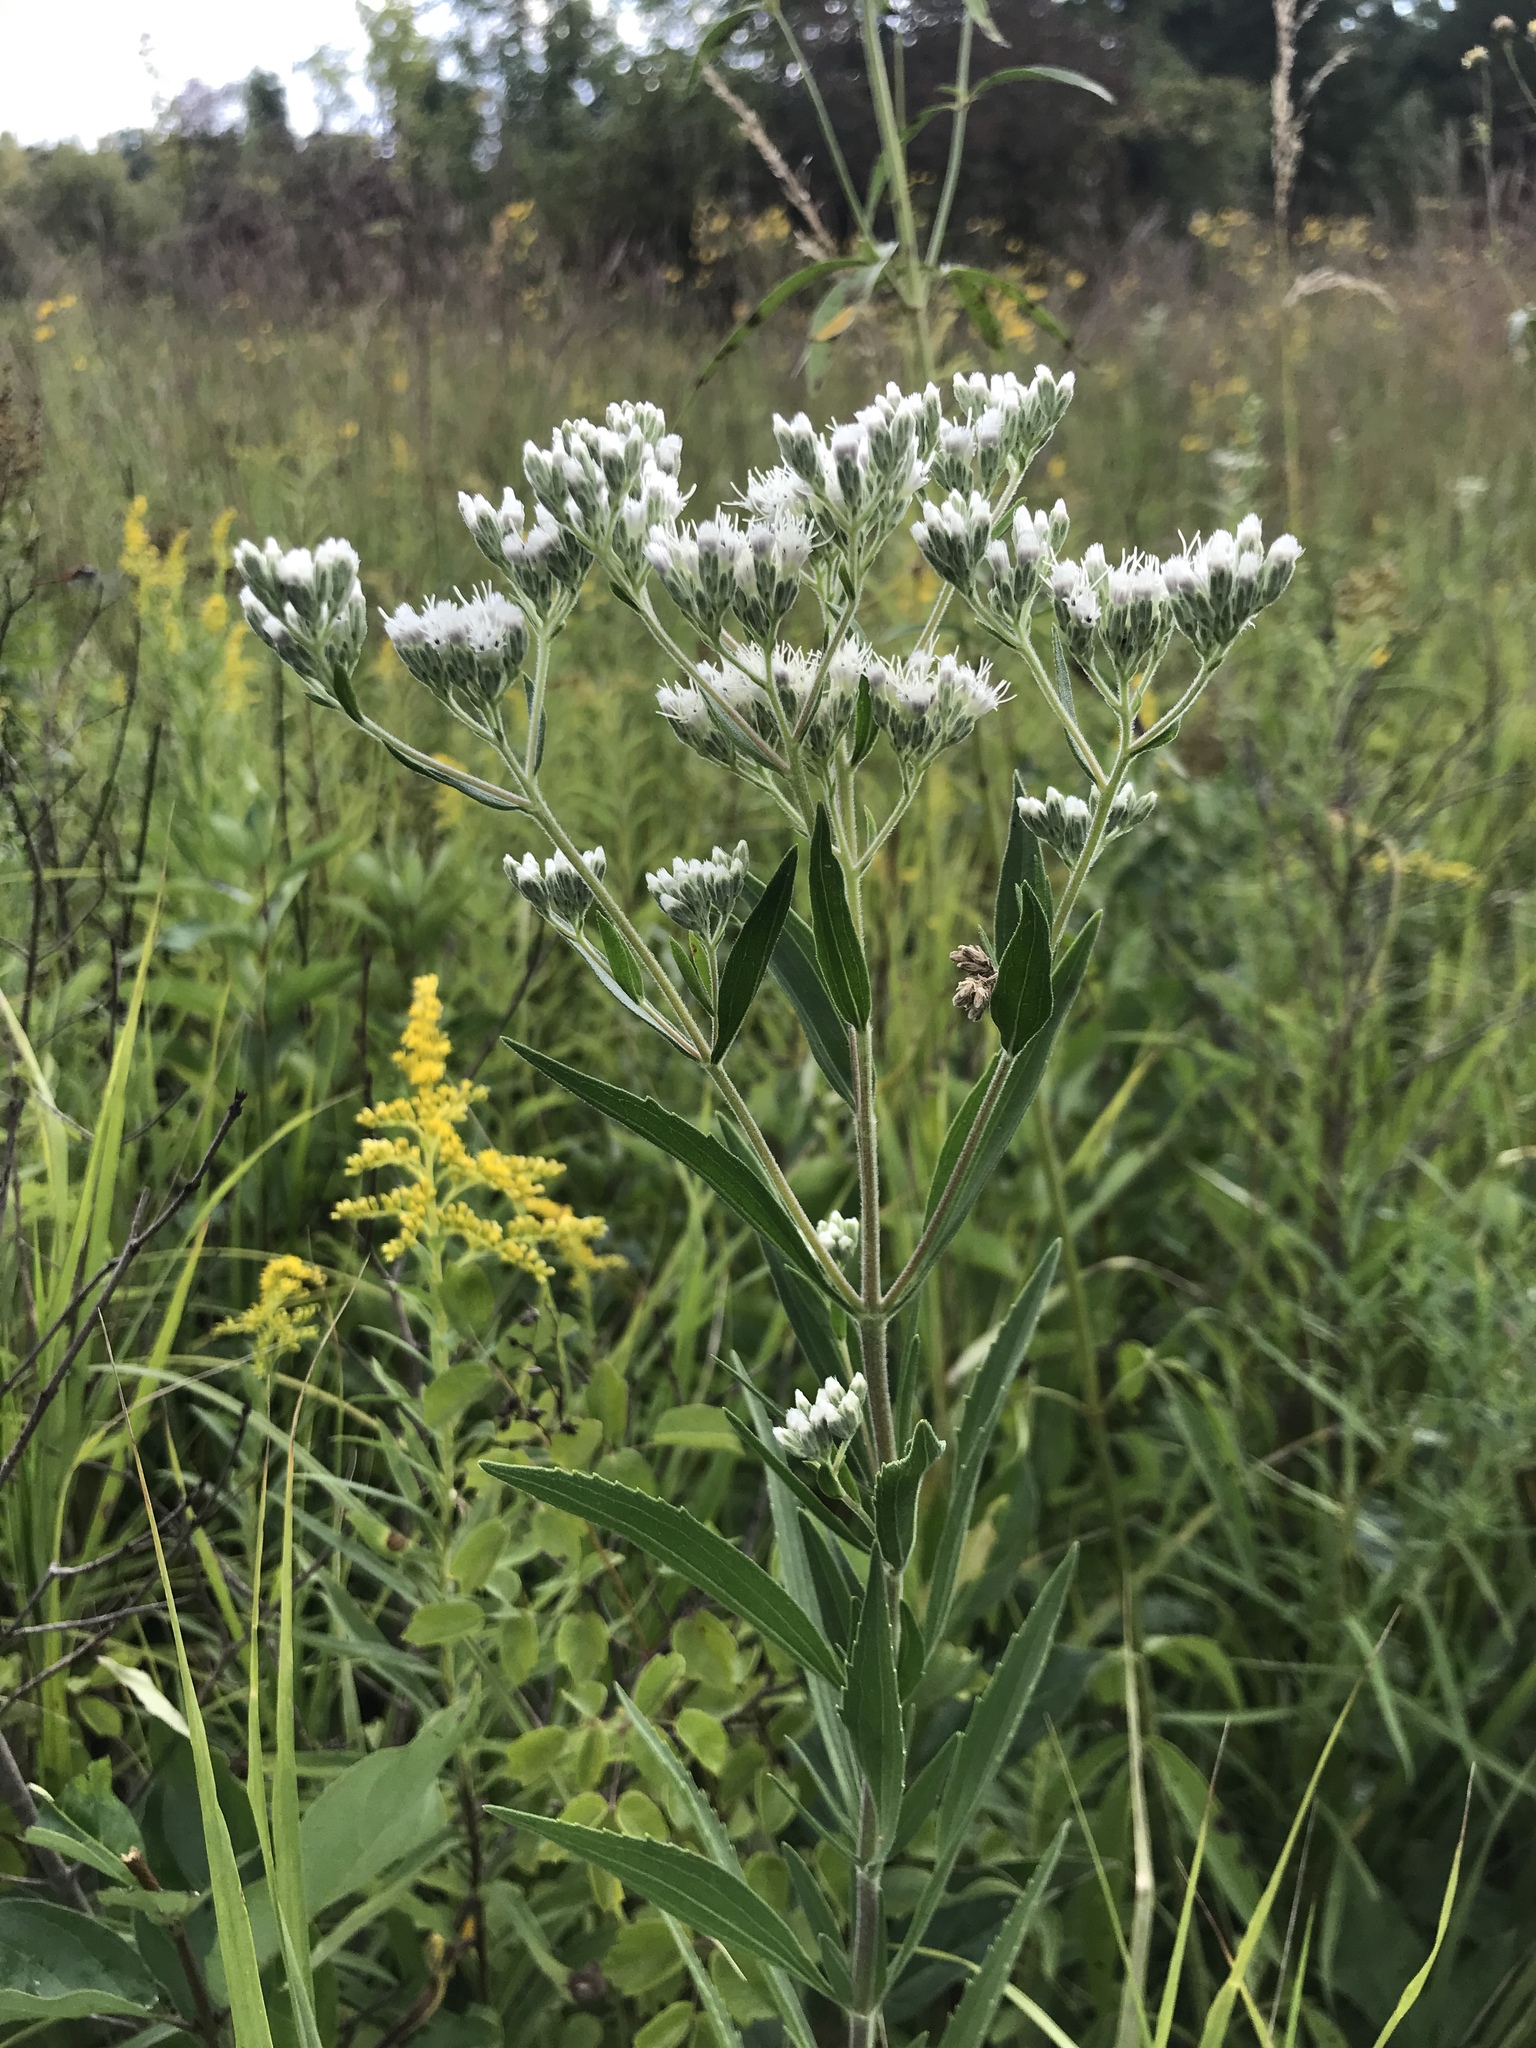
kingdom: Plantae
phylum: Tracheophyta
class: Magnoliopsida
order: Asterales
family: Asteraceae
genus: Eupatorium
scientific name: Eupatorium altissimum
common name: Tall thoroughwort
